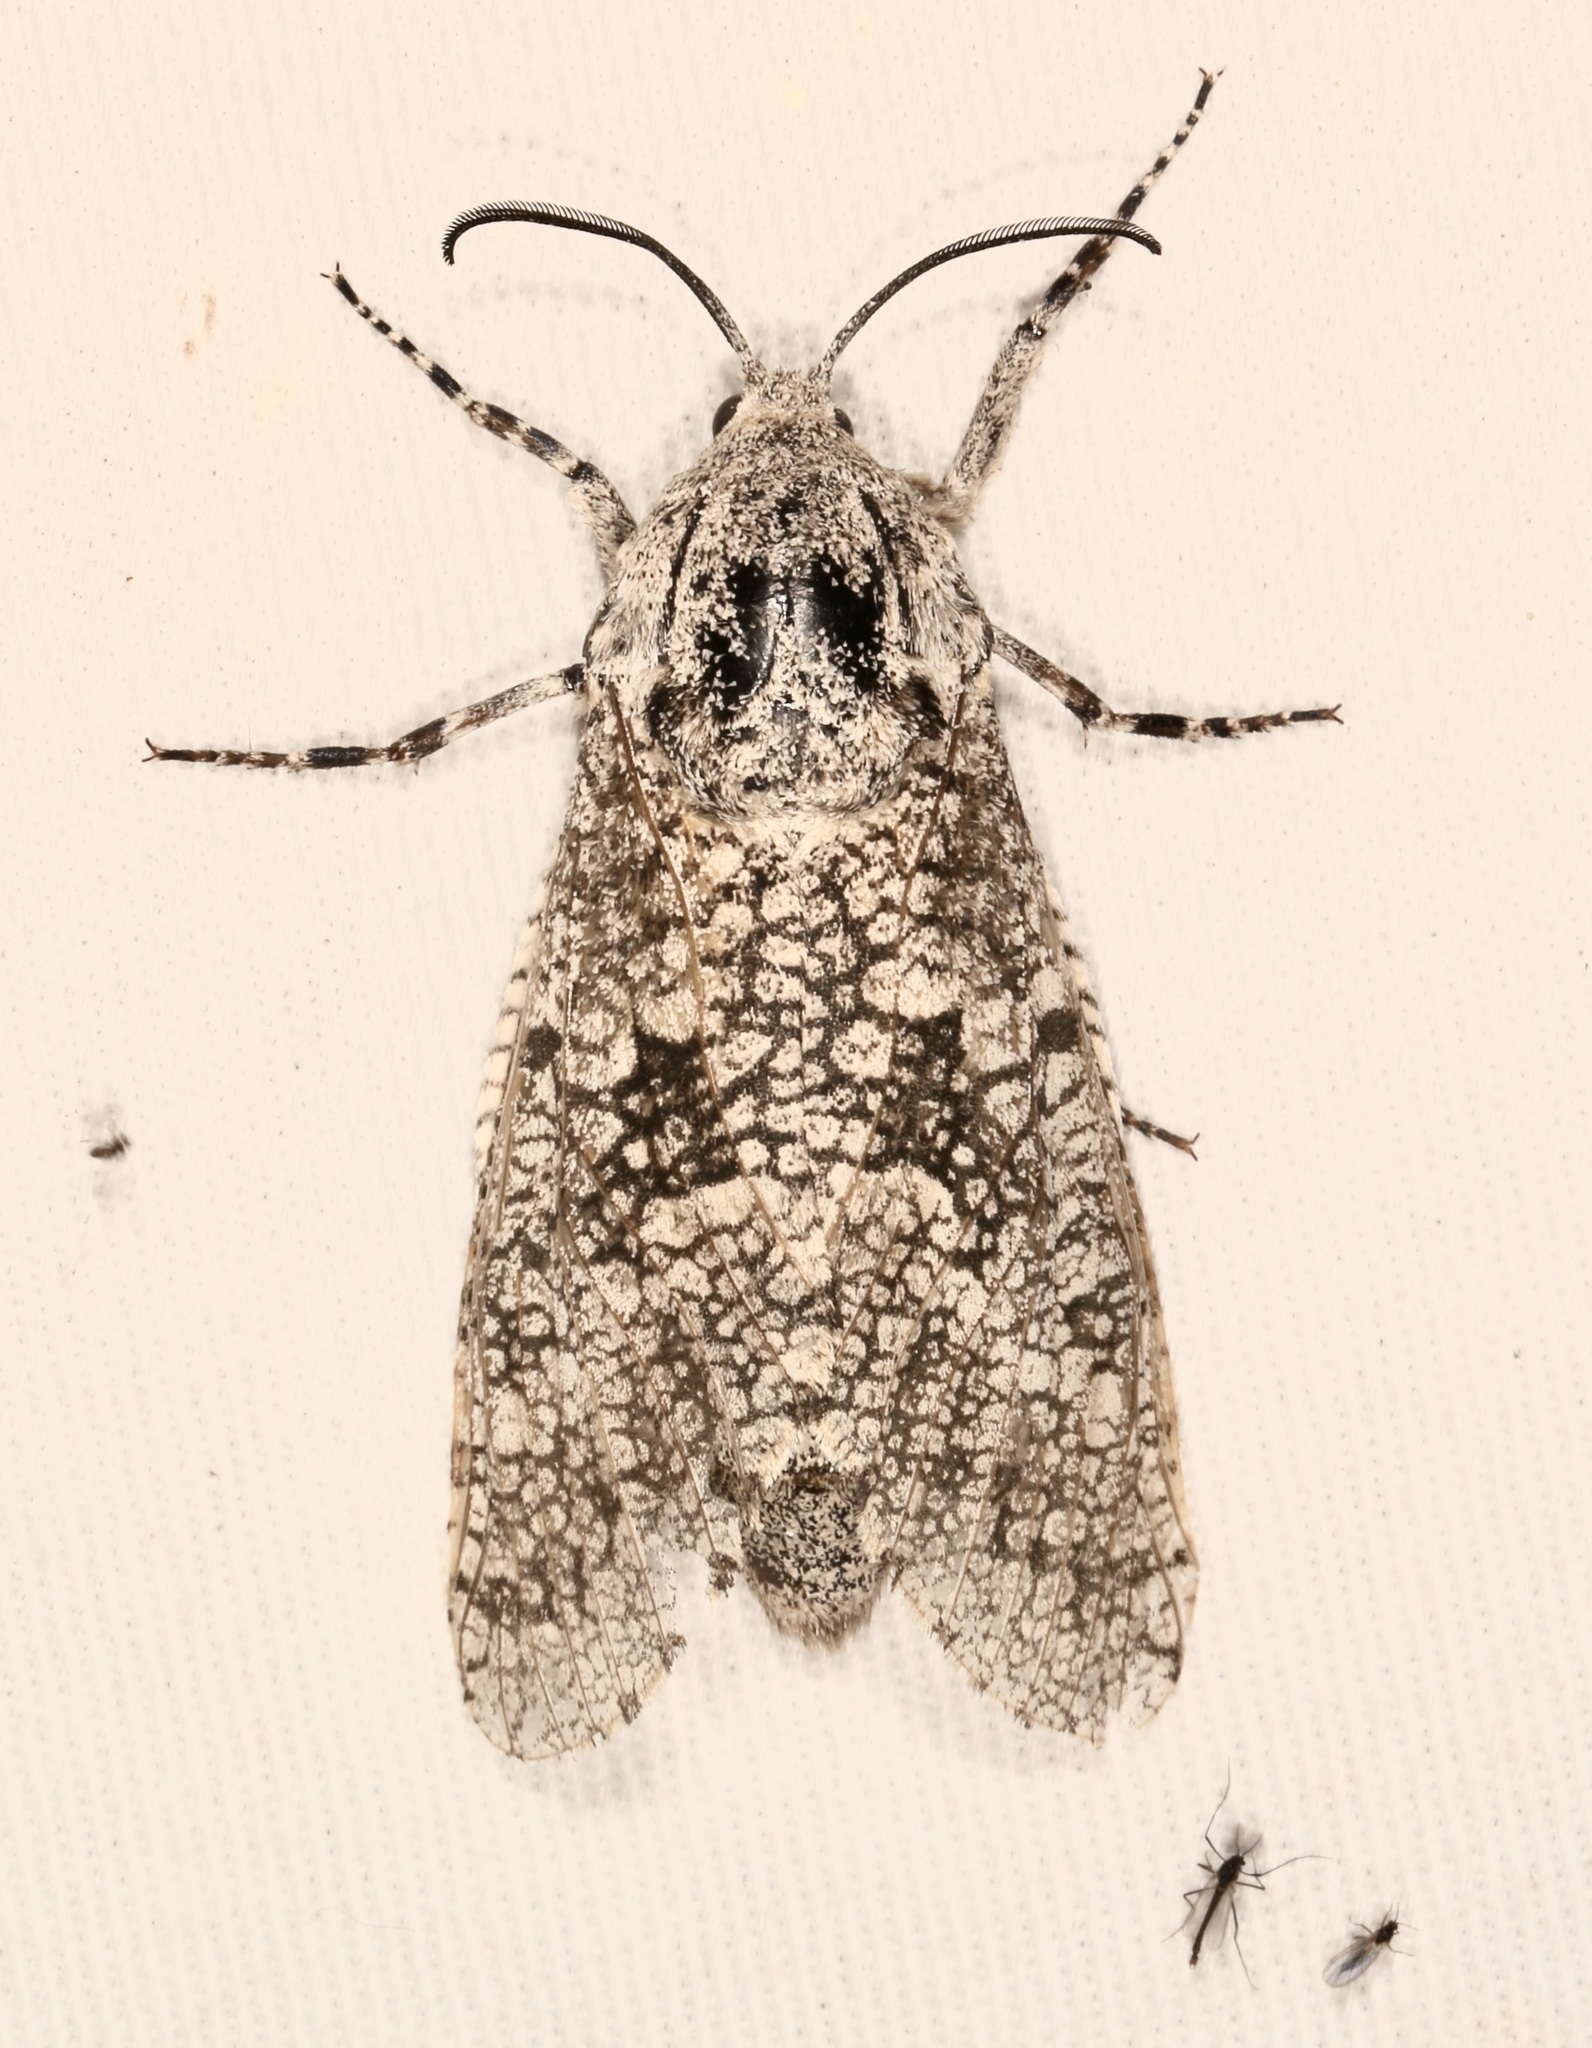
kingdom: Animalia
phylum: Arthropoda
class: Insecta
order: Lepidoptera
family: Cossidae
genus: Prionoxystus
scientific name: Prionoxystus robiniae
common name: Carpenterworm
